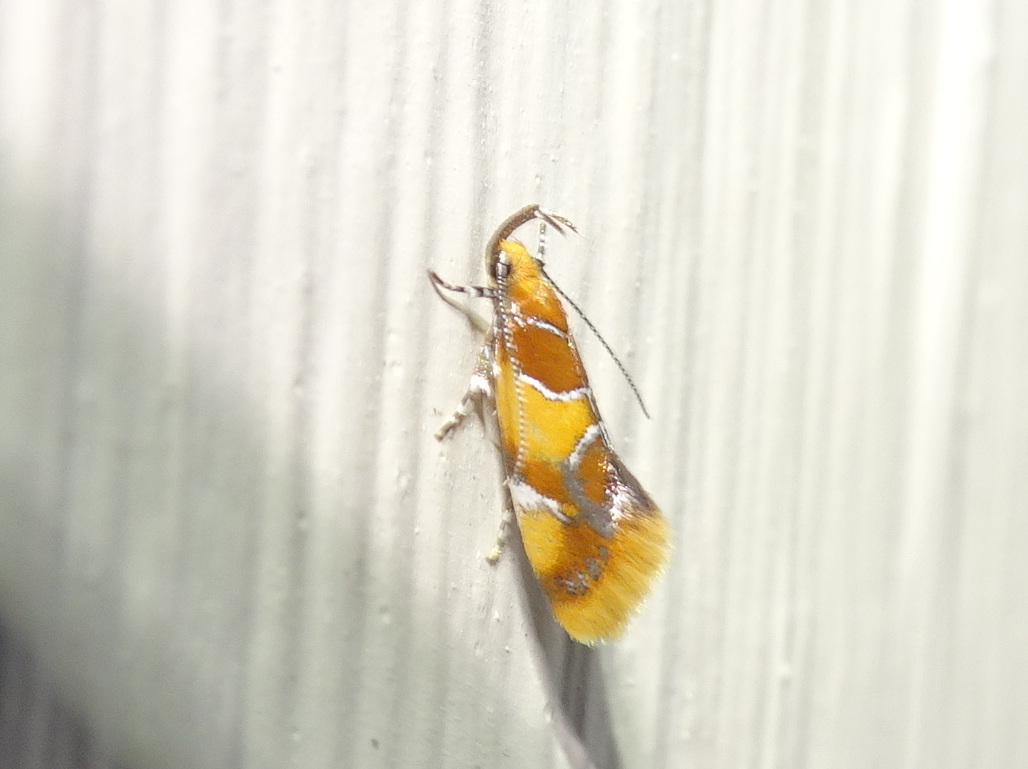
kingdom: Animalia
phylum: Arthropoda
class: Insecta
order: Lepidoptera
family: Oecophoridae
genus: Callima
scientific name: Callima argenticinctella
